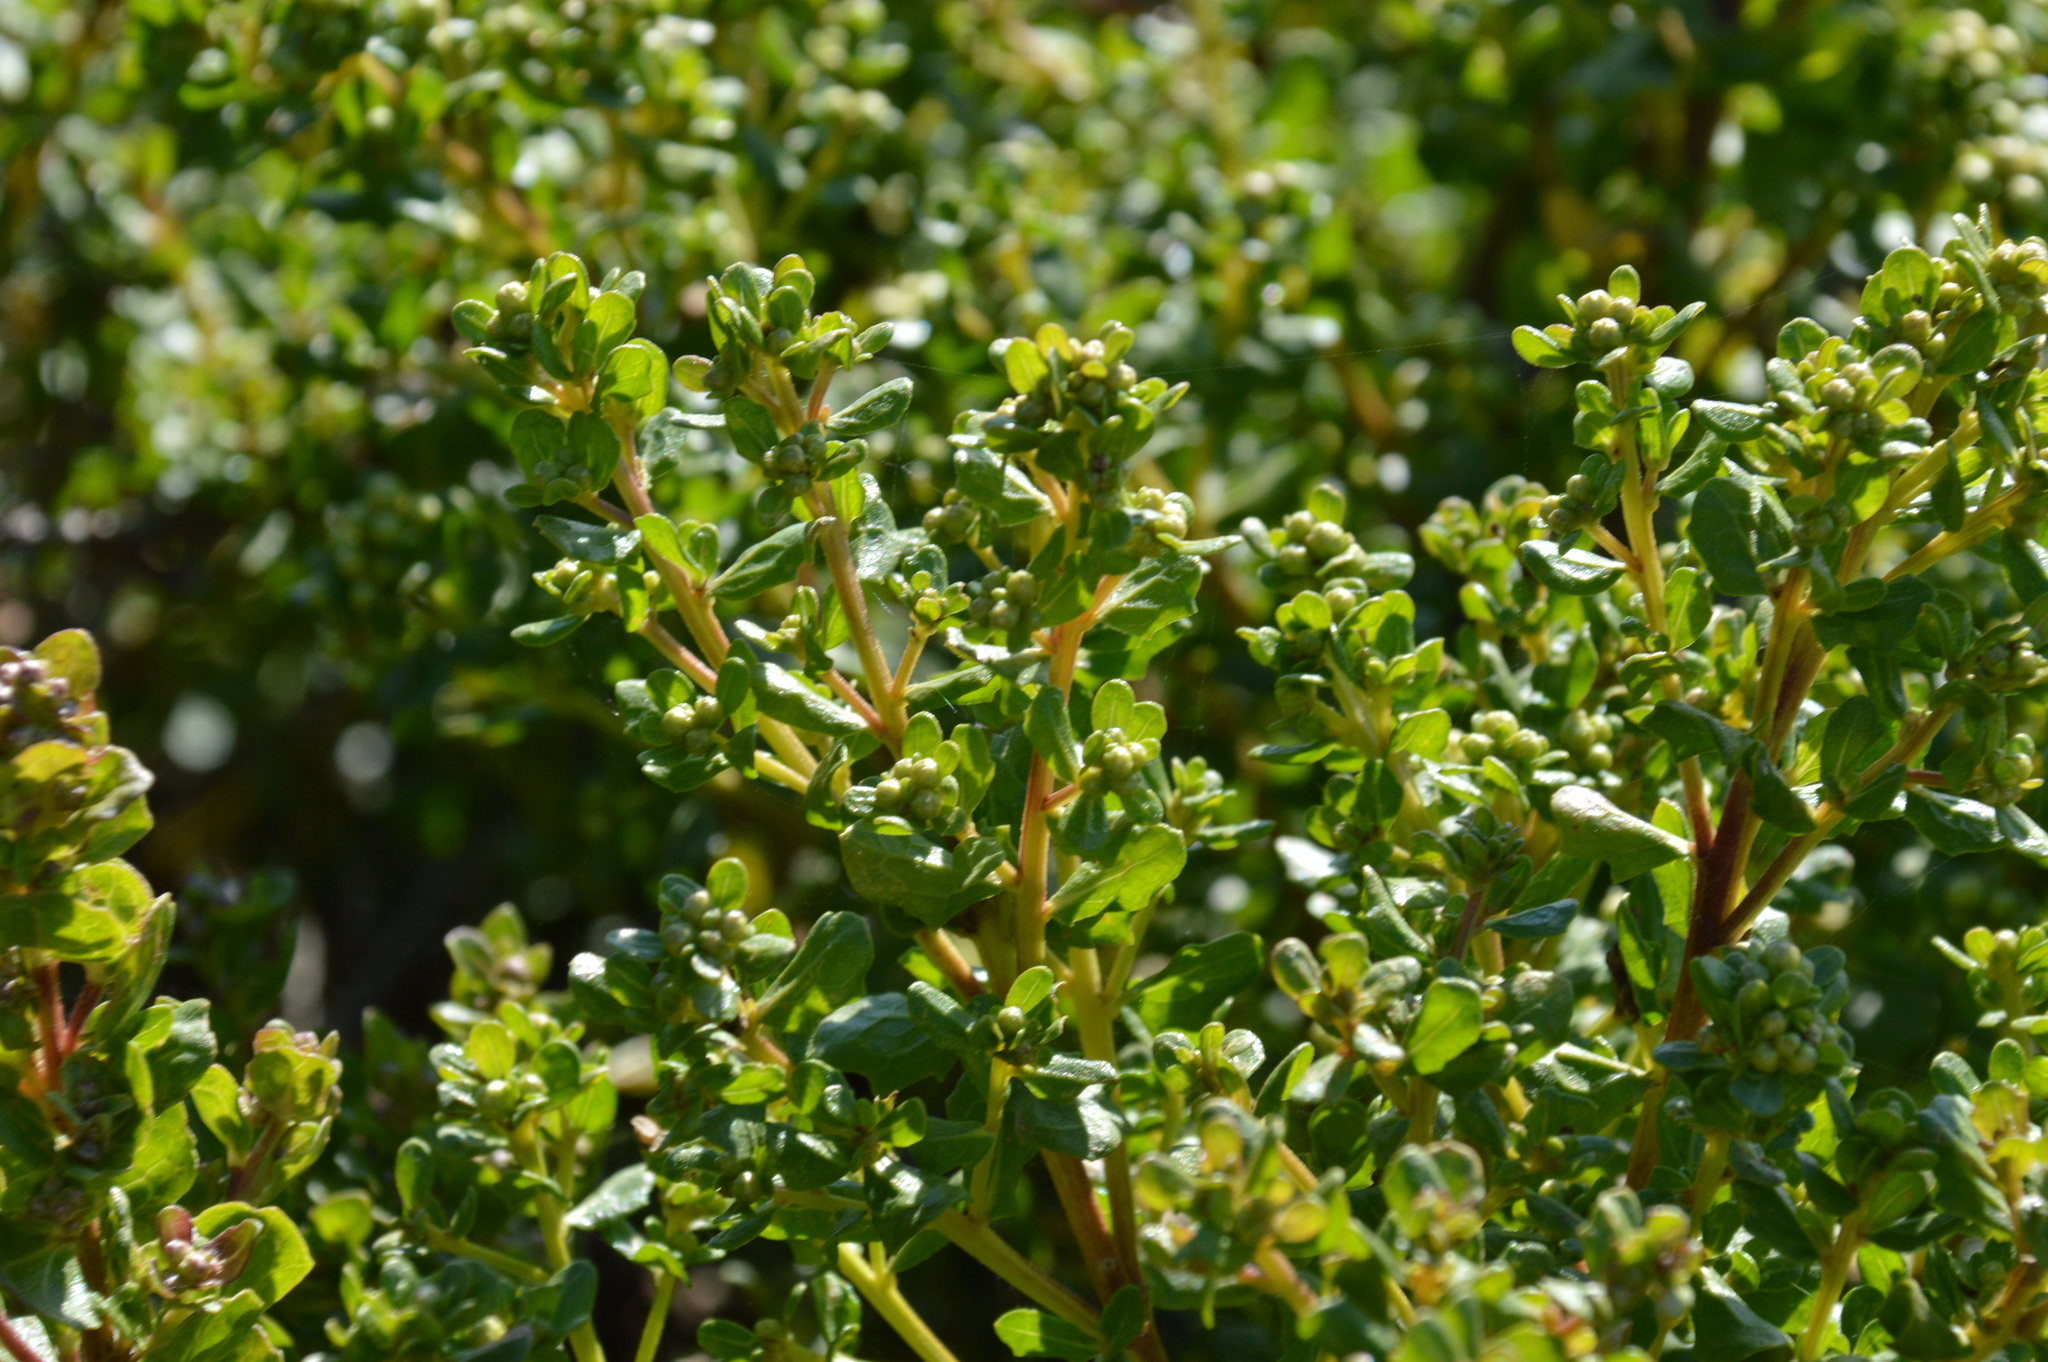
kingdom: Plantae
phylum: Tracheophyta
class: Magnoliopsida
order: Asterales
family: Asteraceae
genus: Baccharis
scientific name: Baccharis pilularis
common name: Coyotebrush
